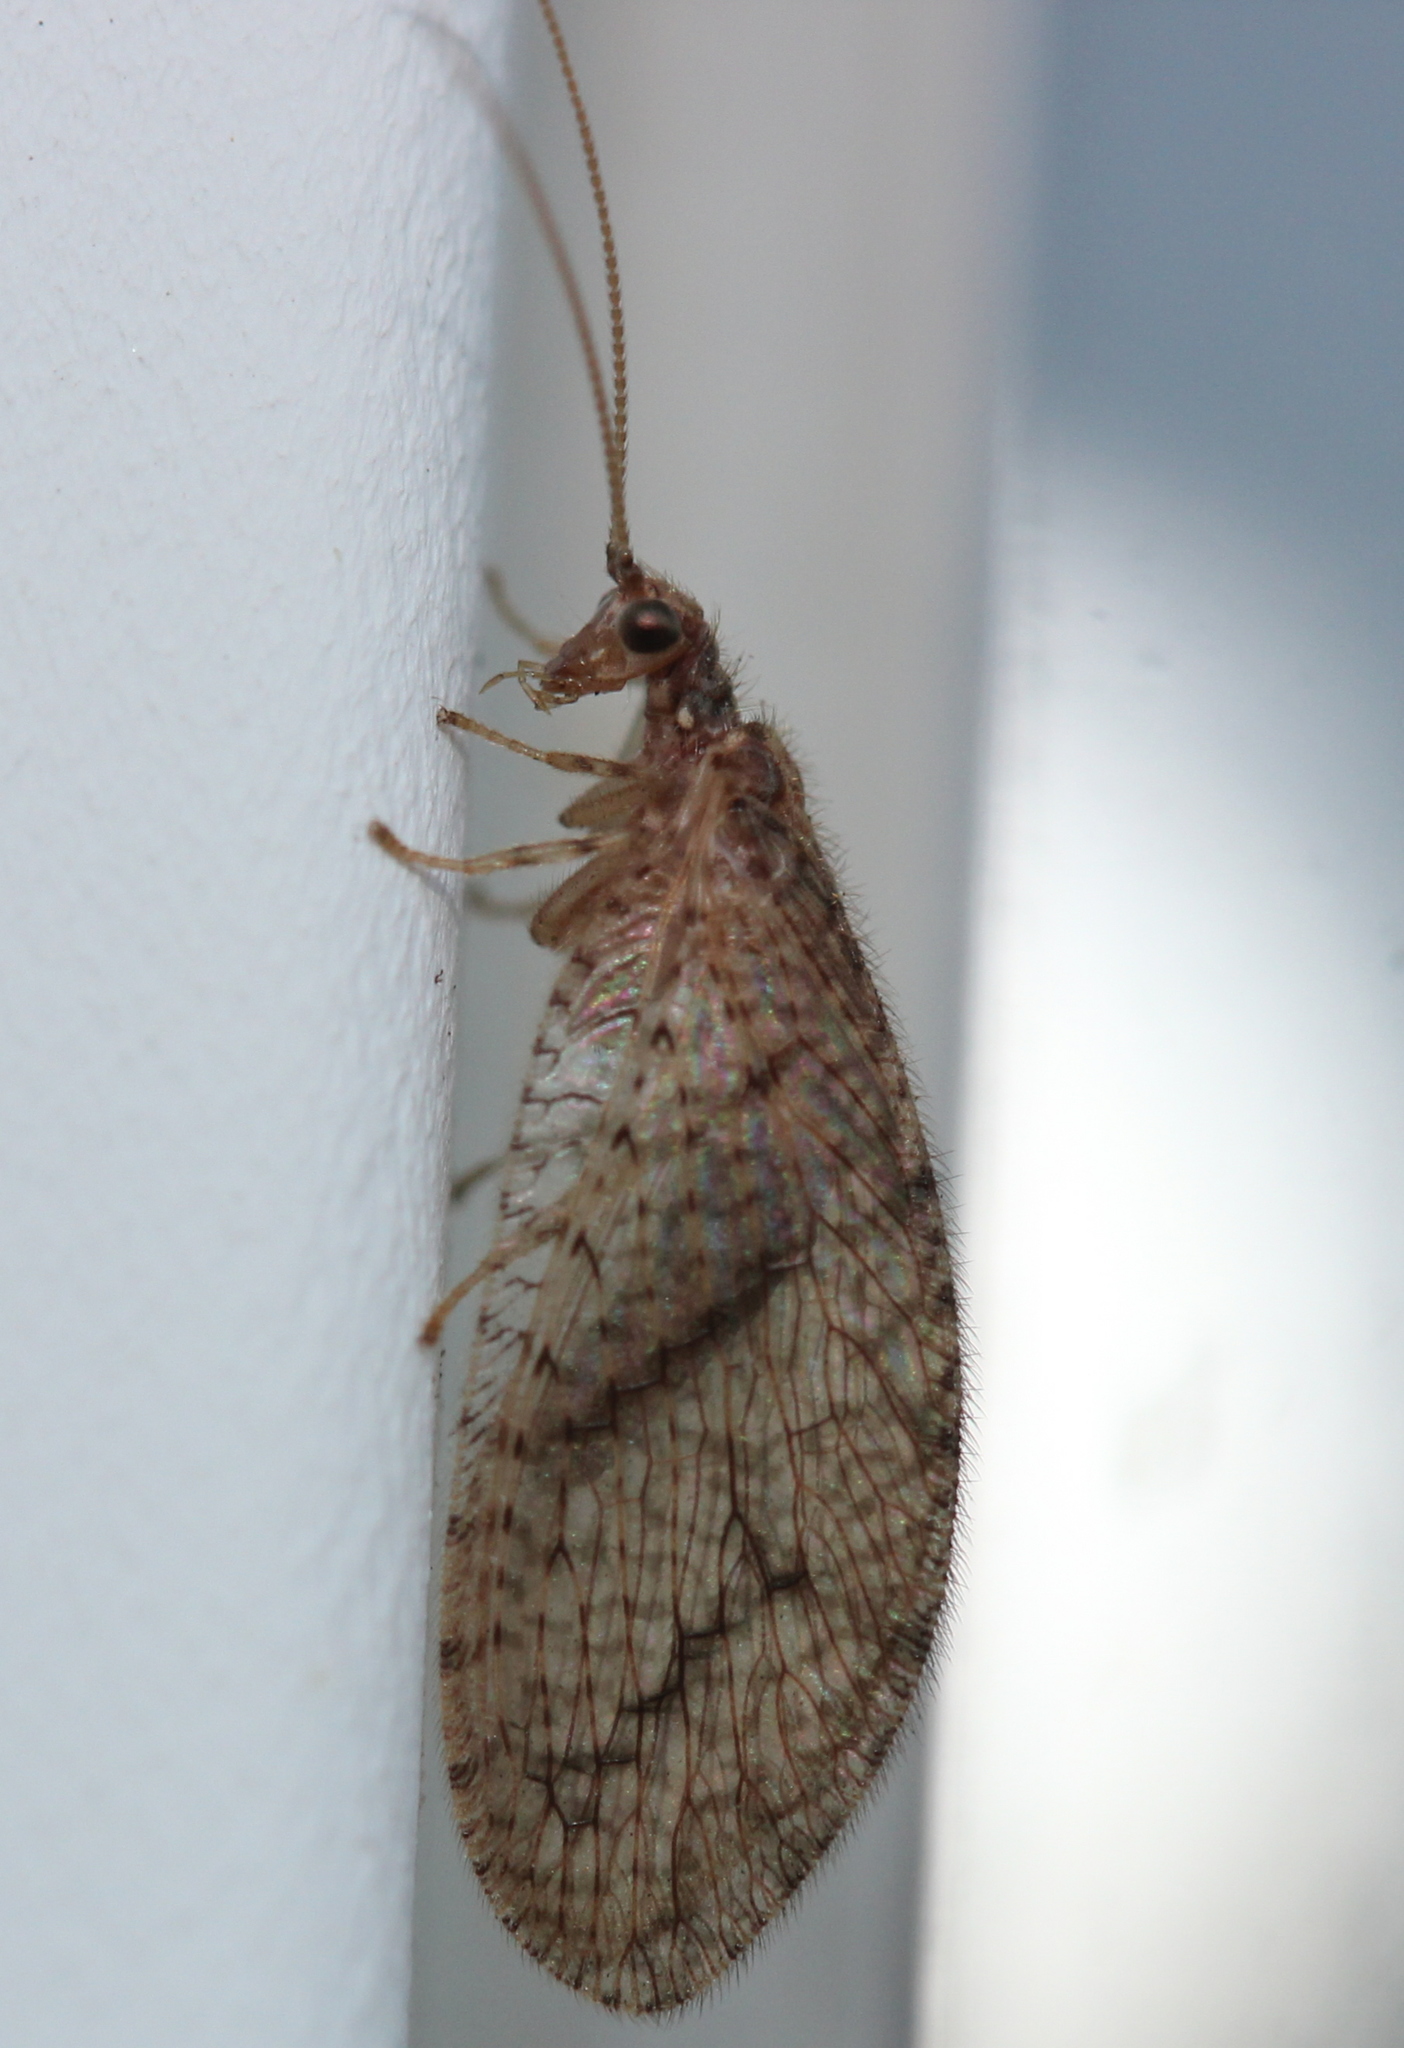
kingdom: Animalia
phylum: Arthropoda
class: Insecta
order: Neuroptera
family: Hemerobiidae
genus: Micromus
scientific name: Micromus posticus
